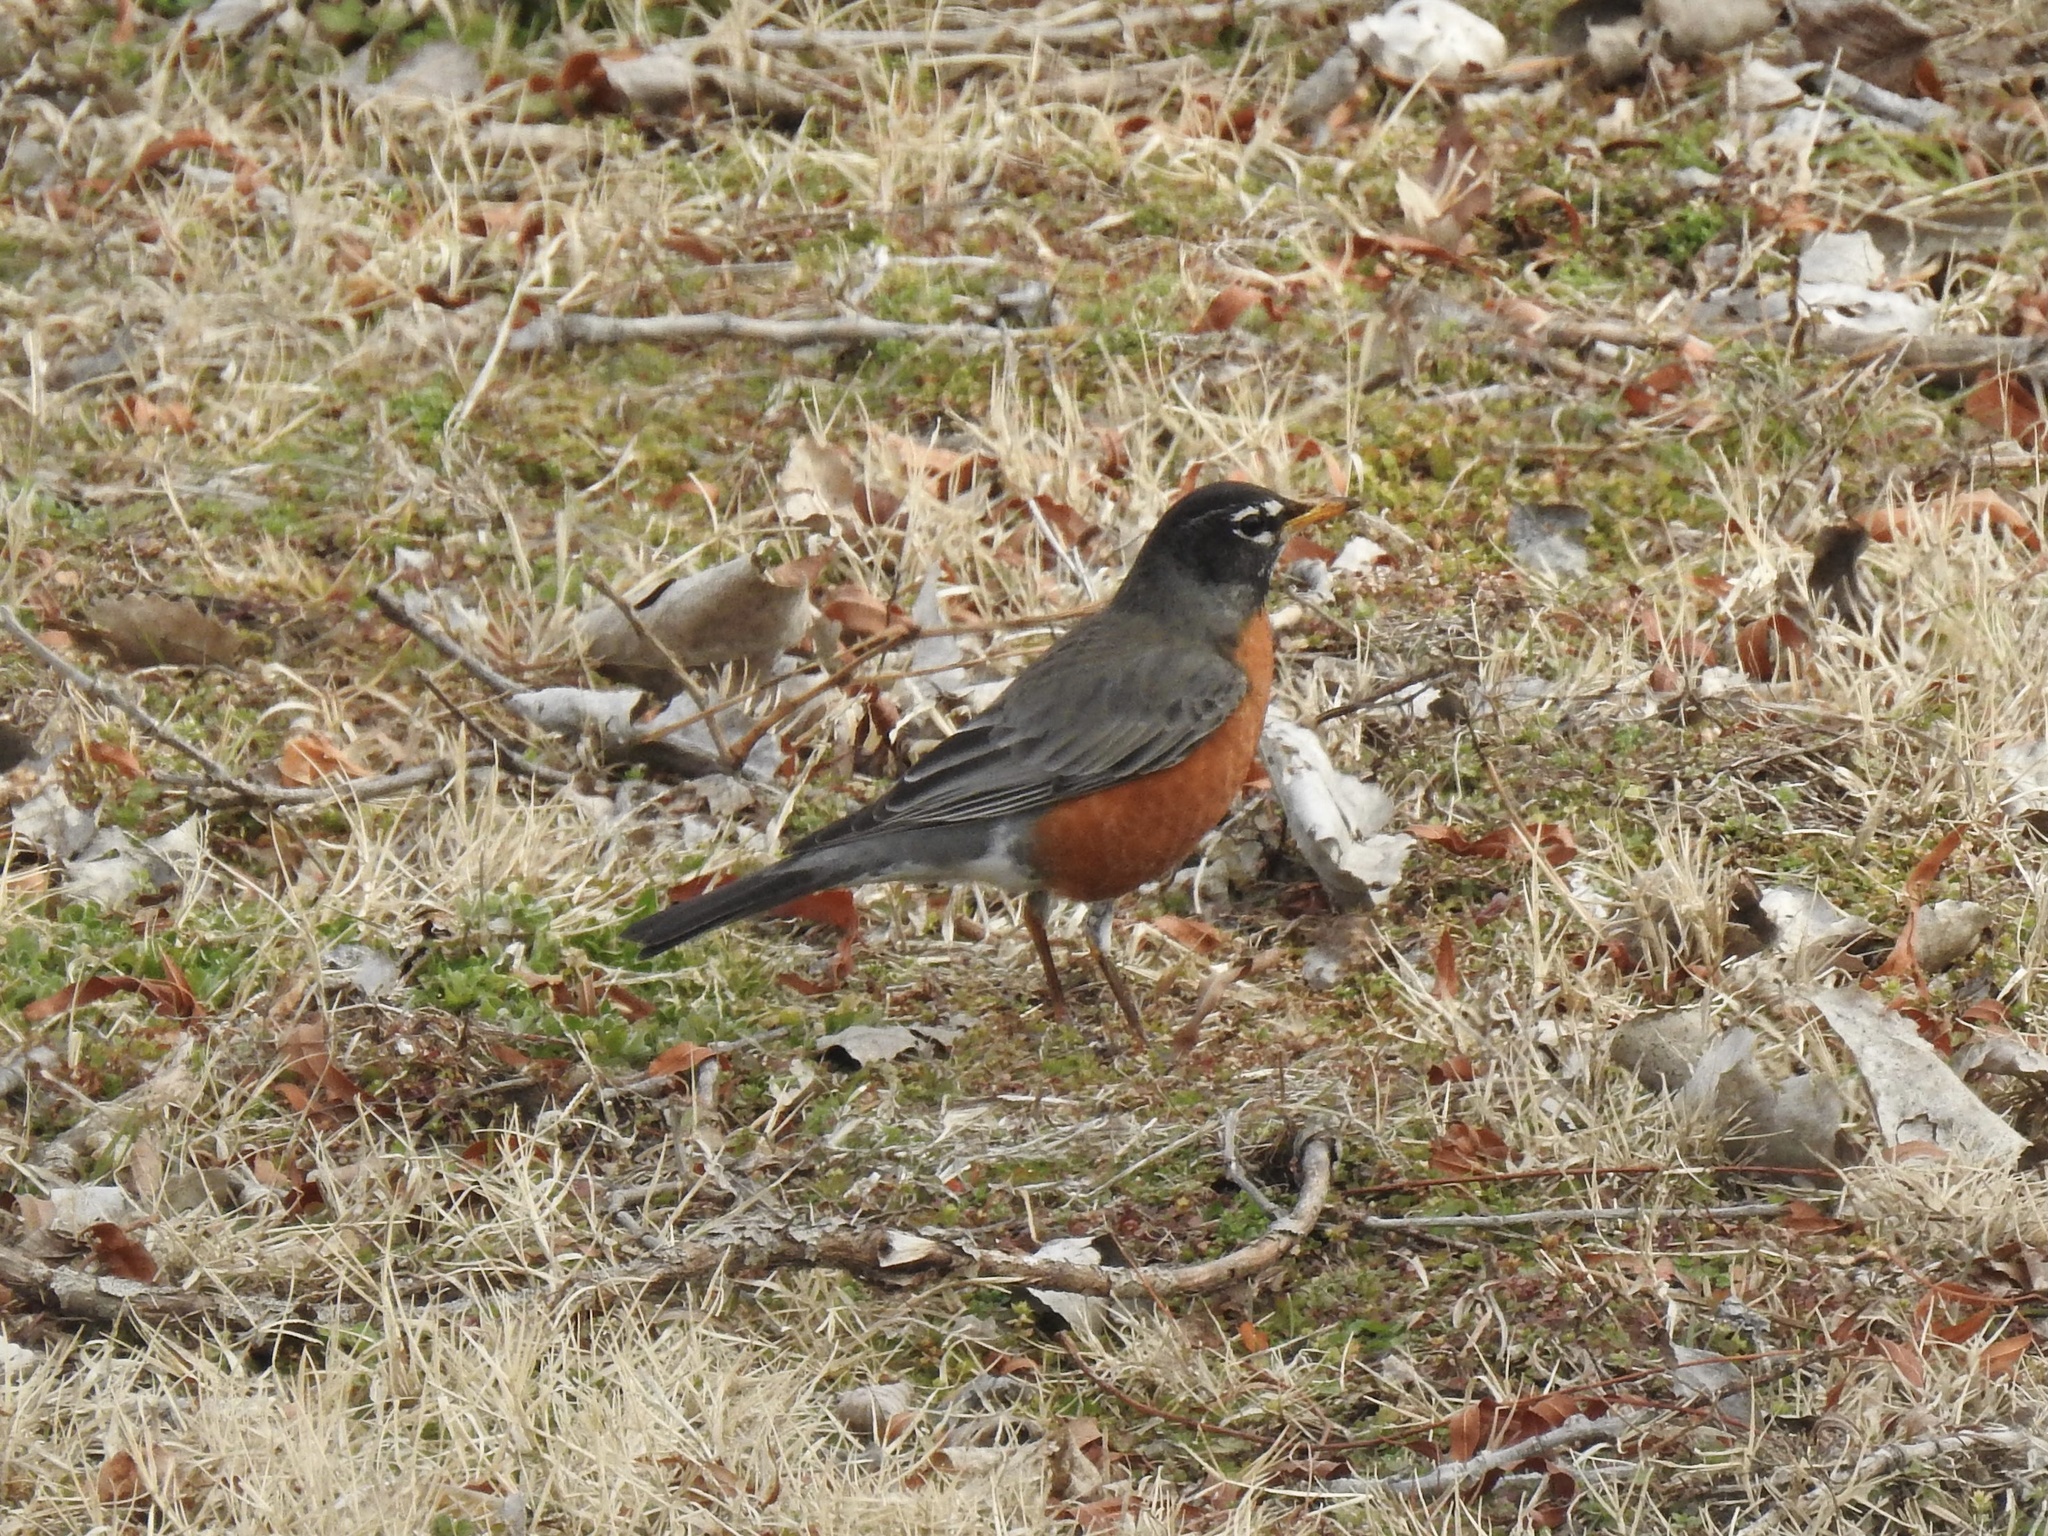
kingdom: Animalia
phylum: Chordata
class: Aves
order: Passeriformes
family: Turdidae
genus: Turdus
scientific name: Turdus migratorius
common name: American robin
